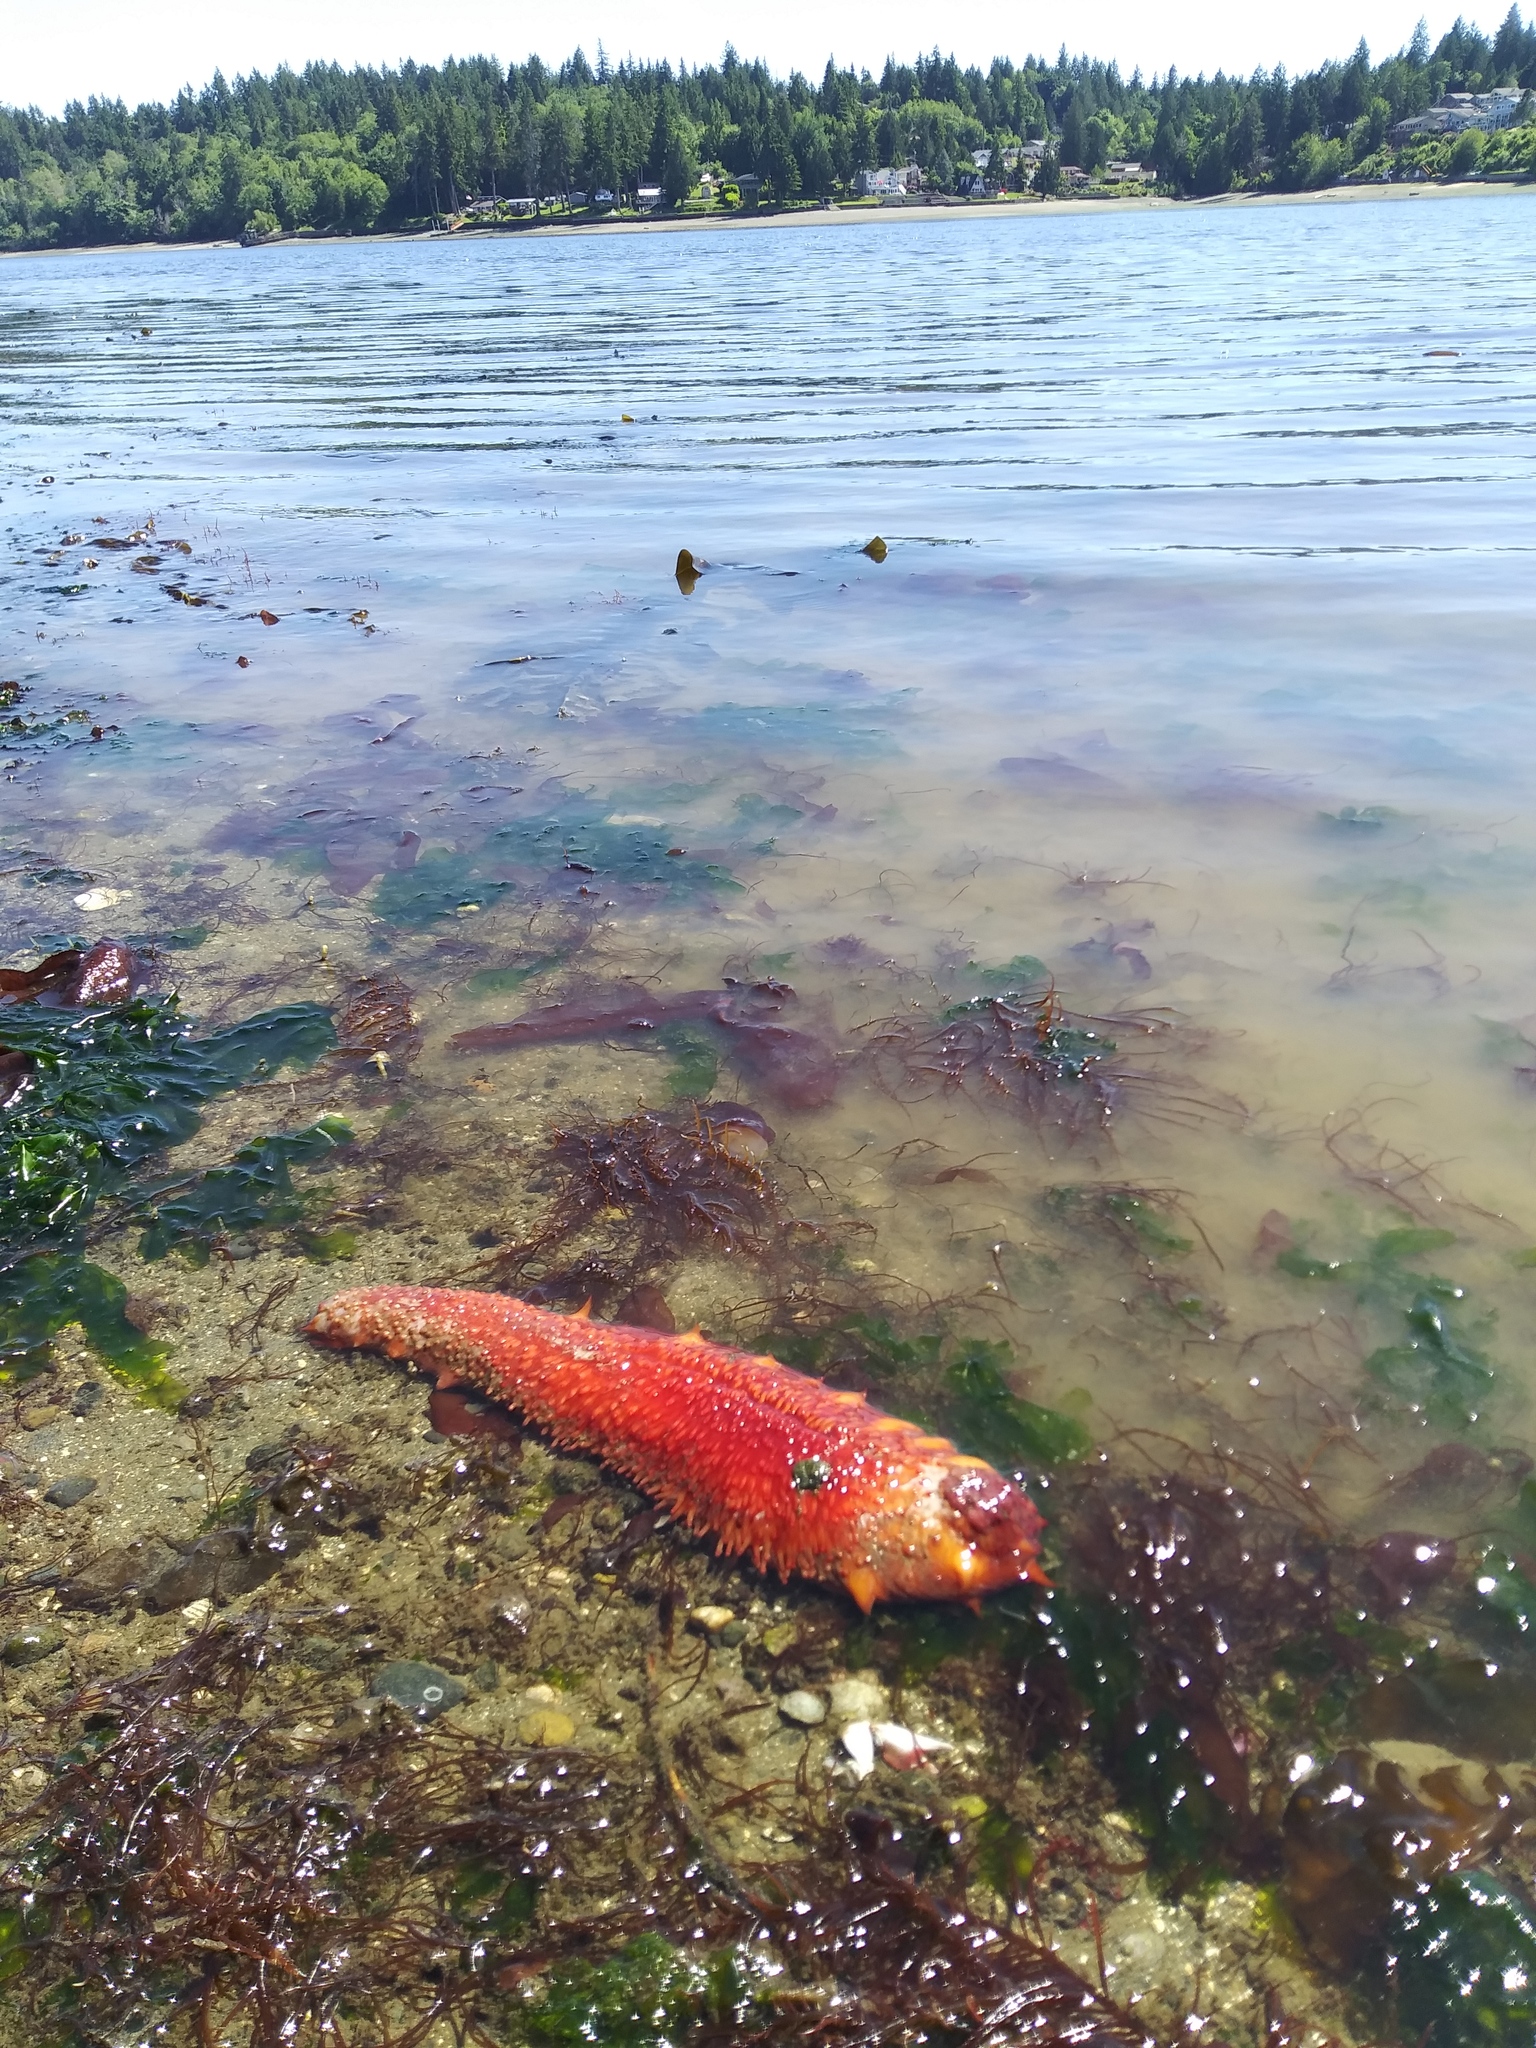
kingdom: Animalia
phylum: Echinodermata
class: Holothuroidea
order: Synallactida
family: Stichopodidae
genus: Apostichopus
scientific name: Apostichopus californicus
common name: California sea cucumber
